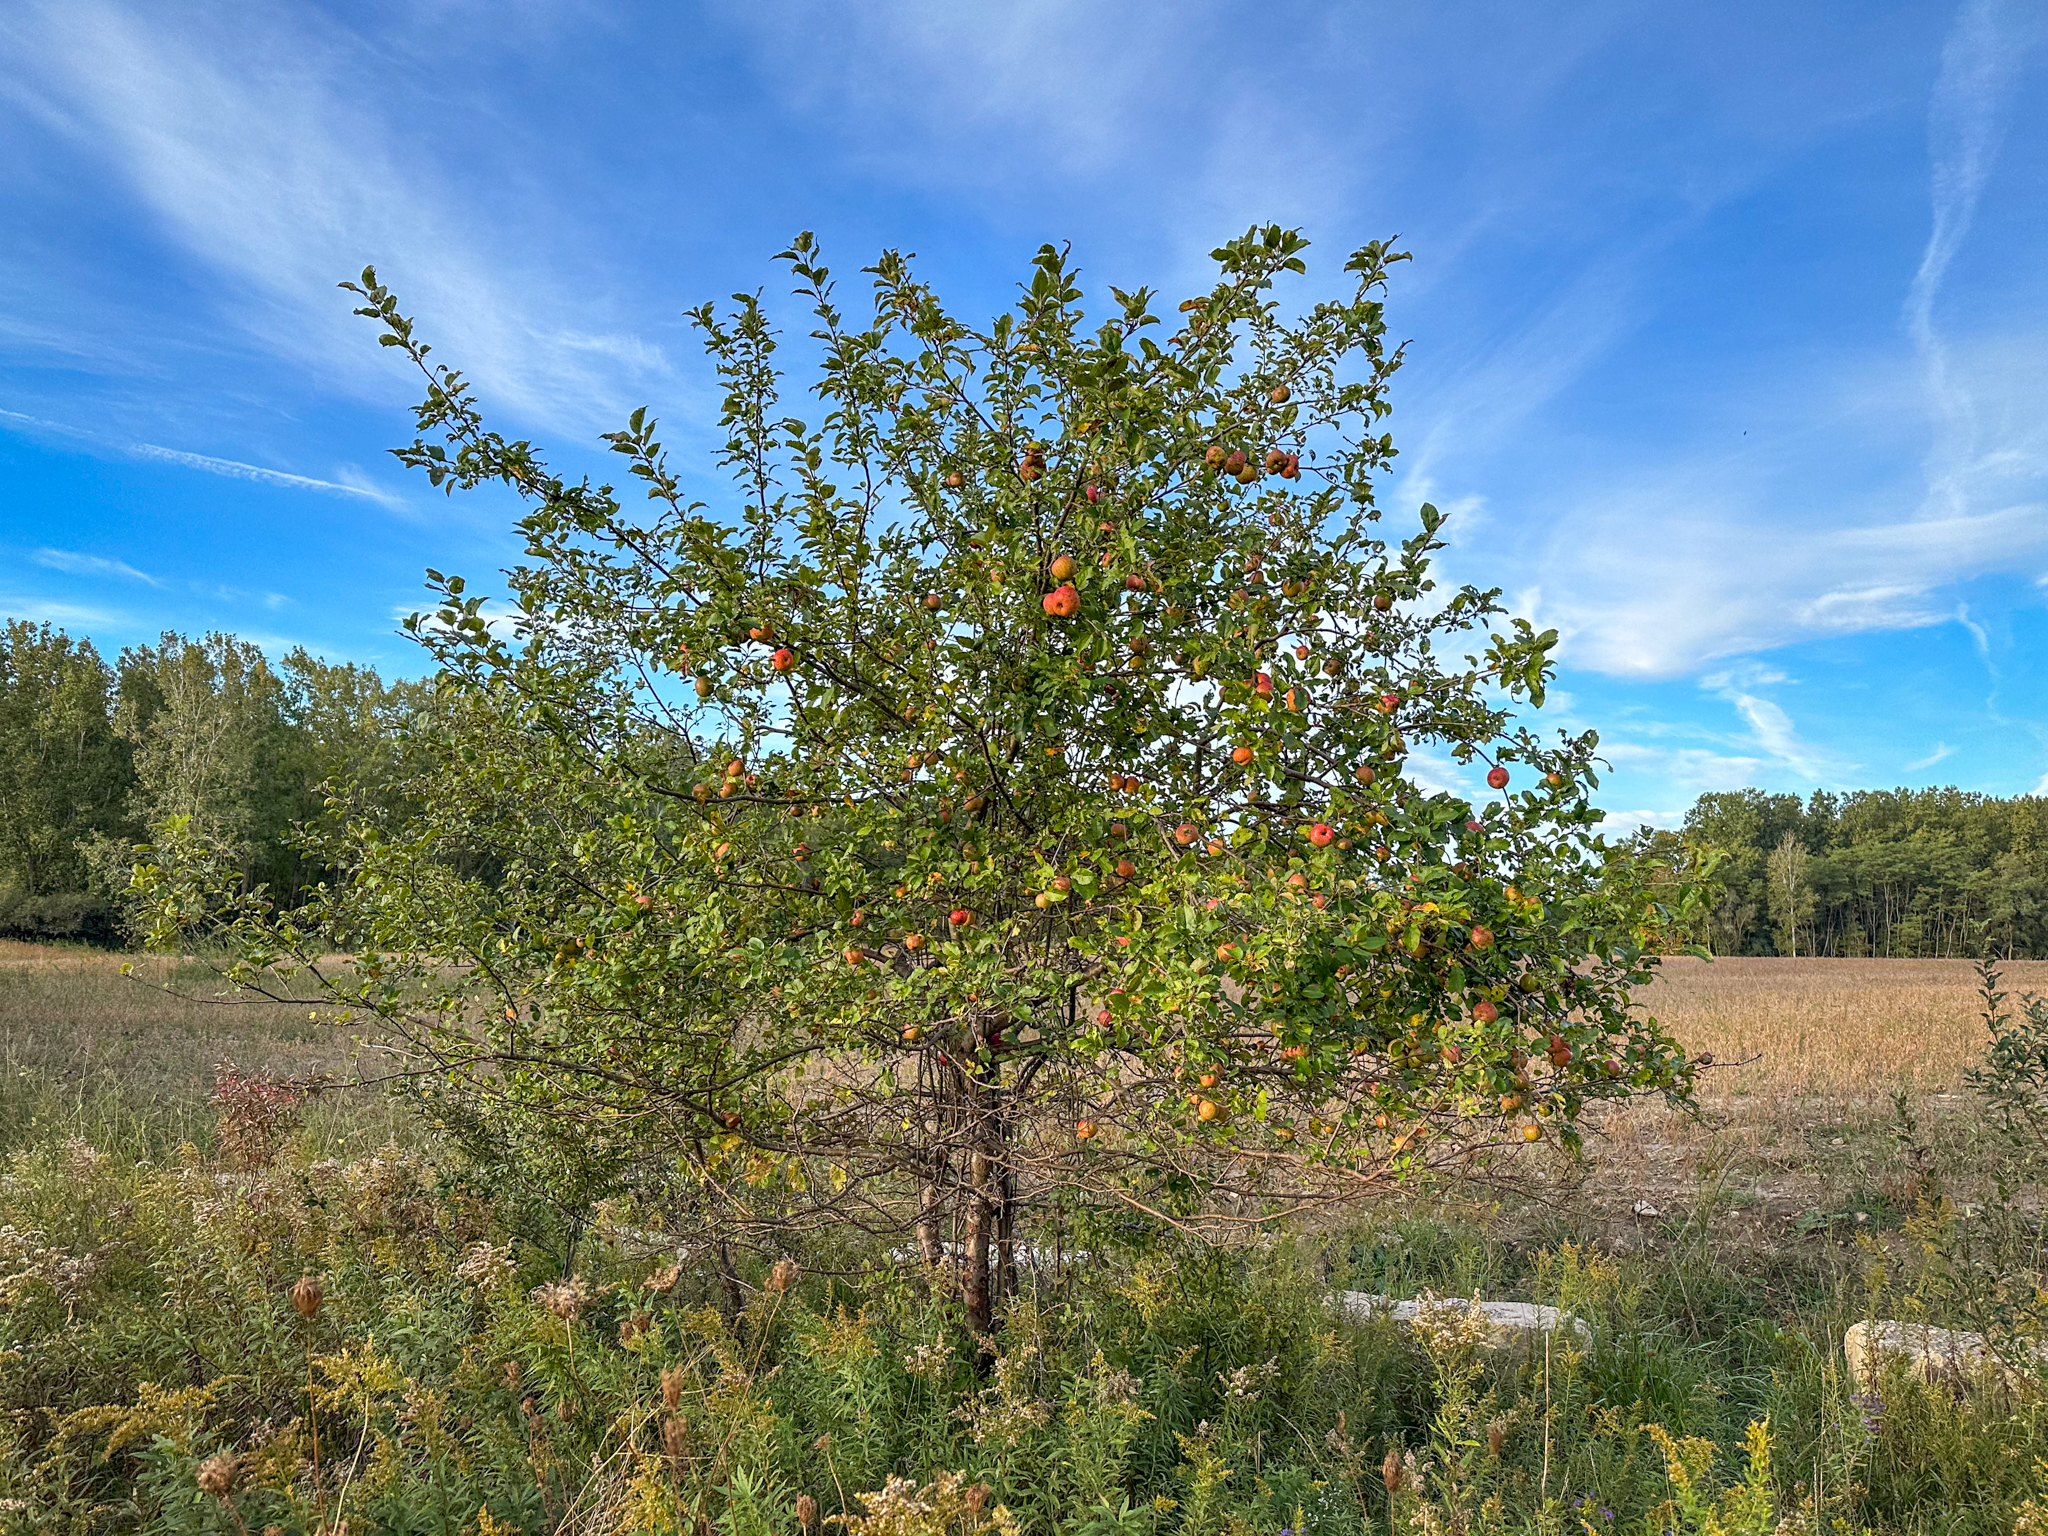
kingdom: Plantae
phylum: Tracheophyta
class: Magnoliopsida
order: Rosales
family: Rosaceae
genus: Malus
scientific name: Malus domestica
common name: Apple
